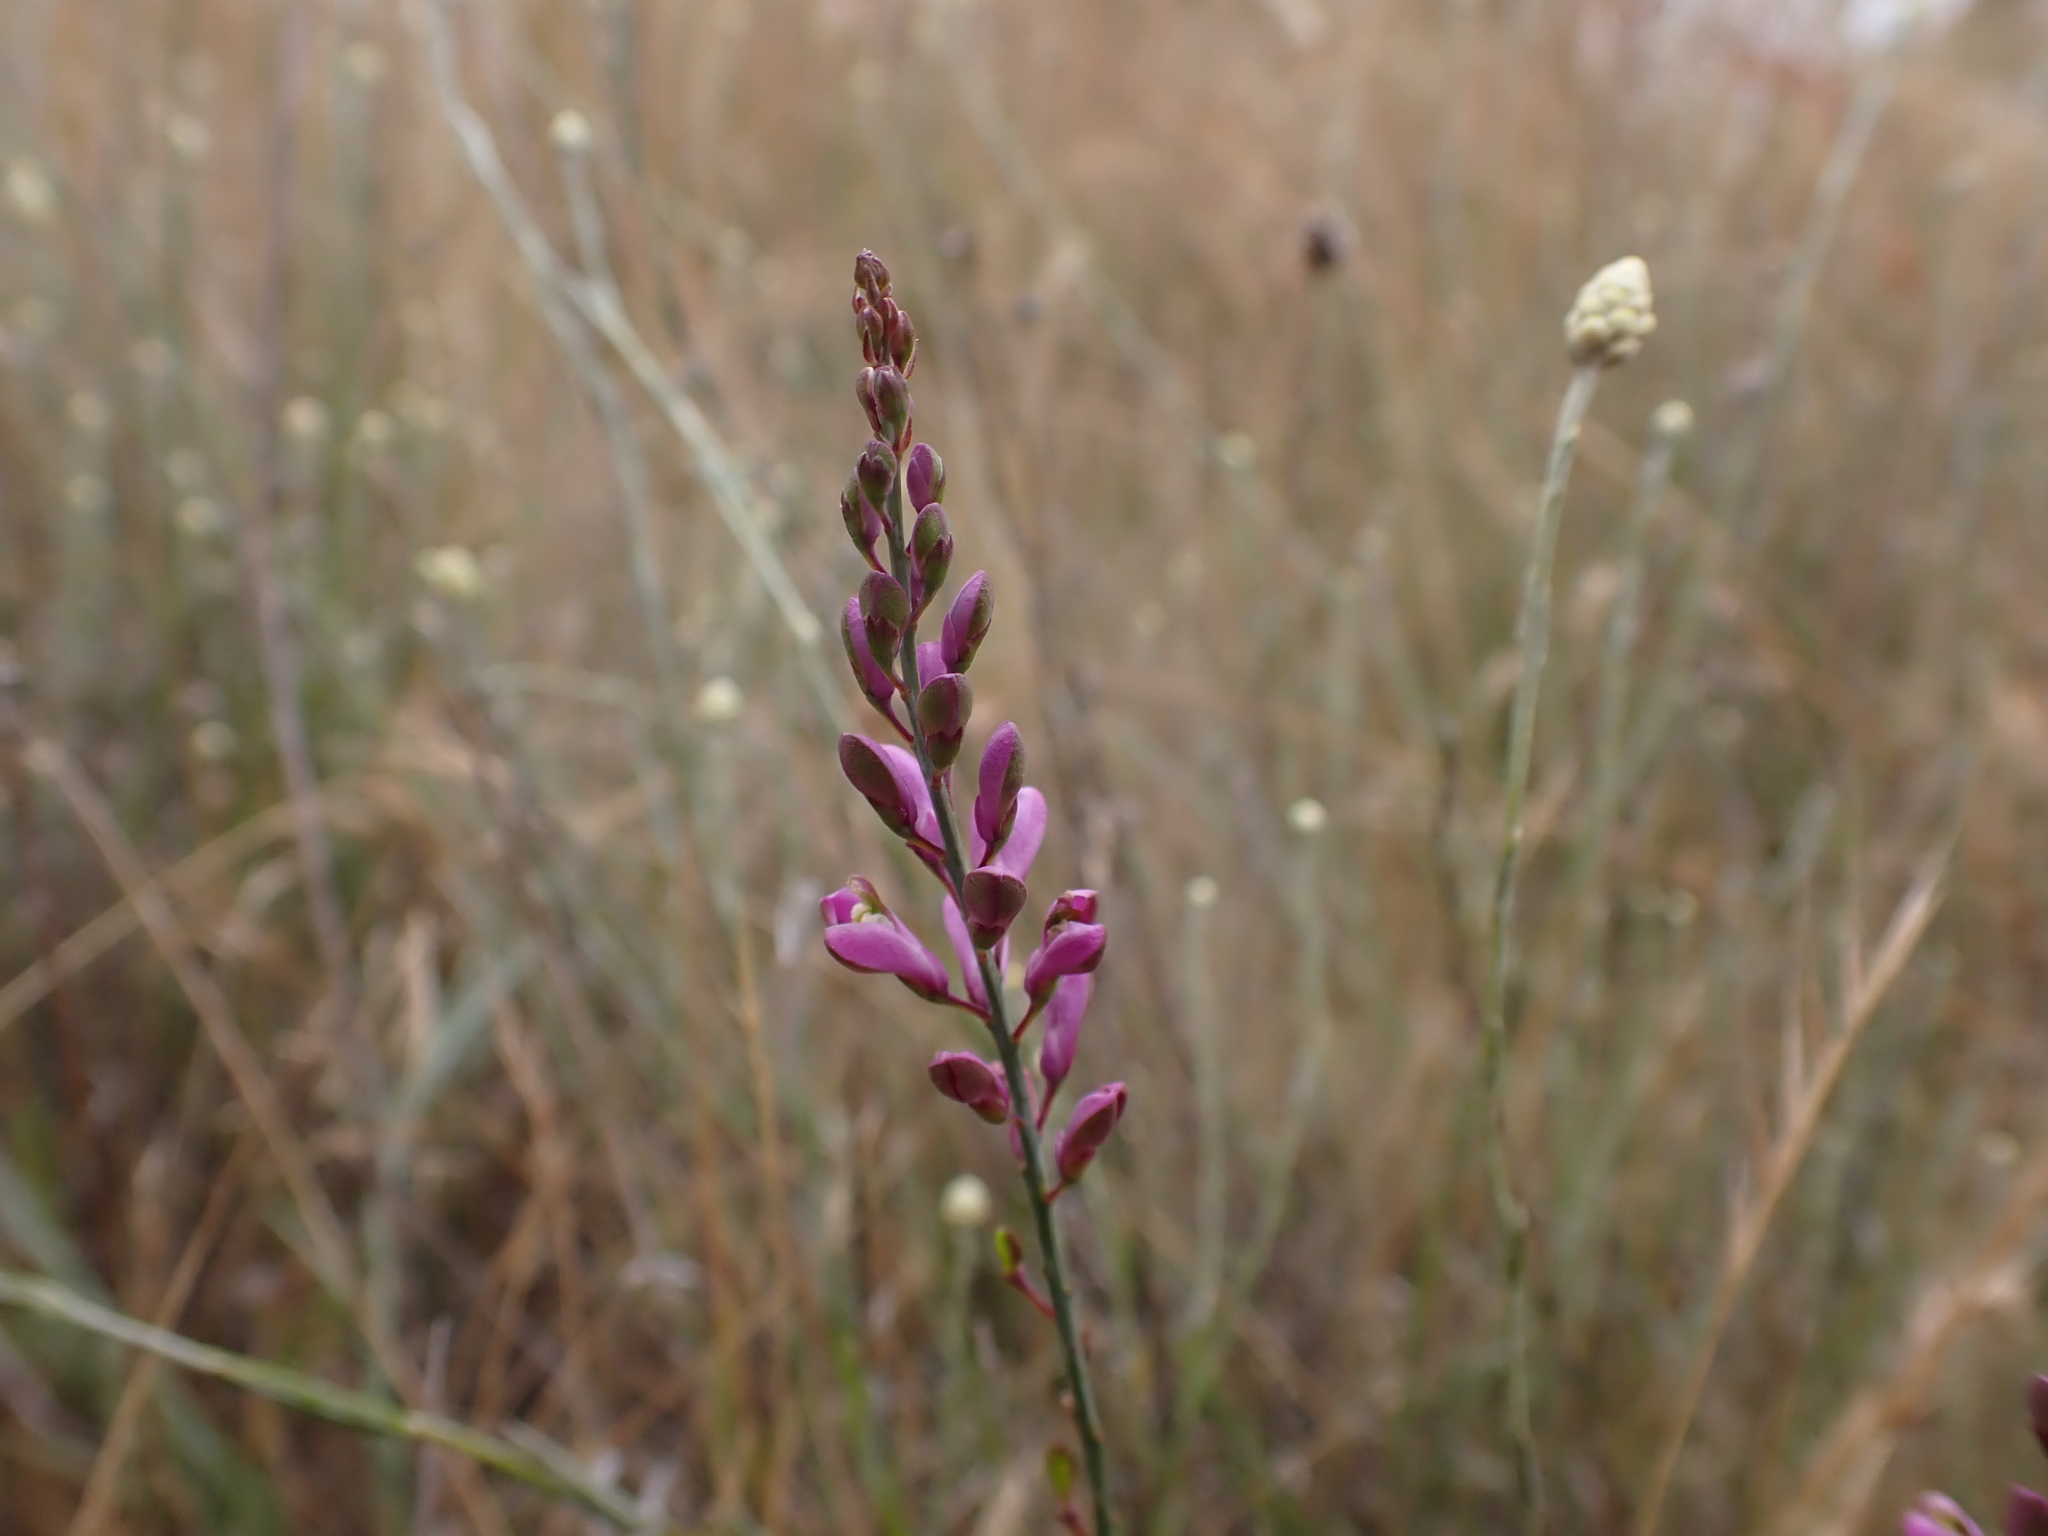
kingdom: Plantae
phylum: Tracheophyta
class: Magnoliopsida
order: Fabales
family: Polygalaceae
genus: Comesperma
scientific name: Comesperma polygaloides
